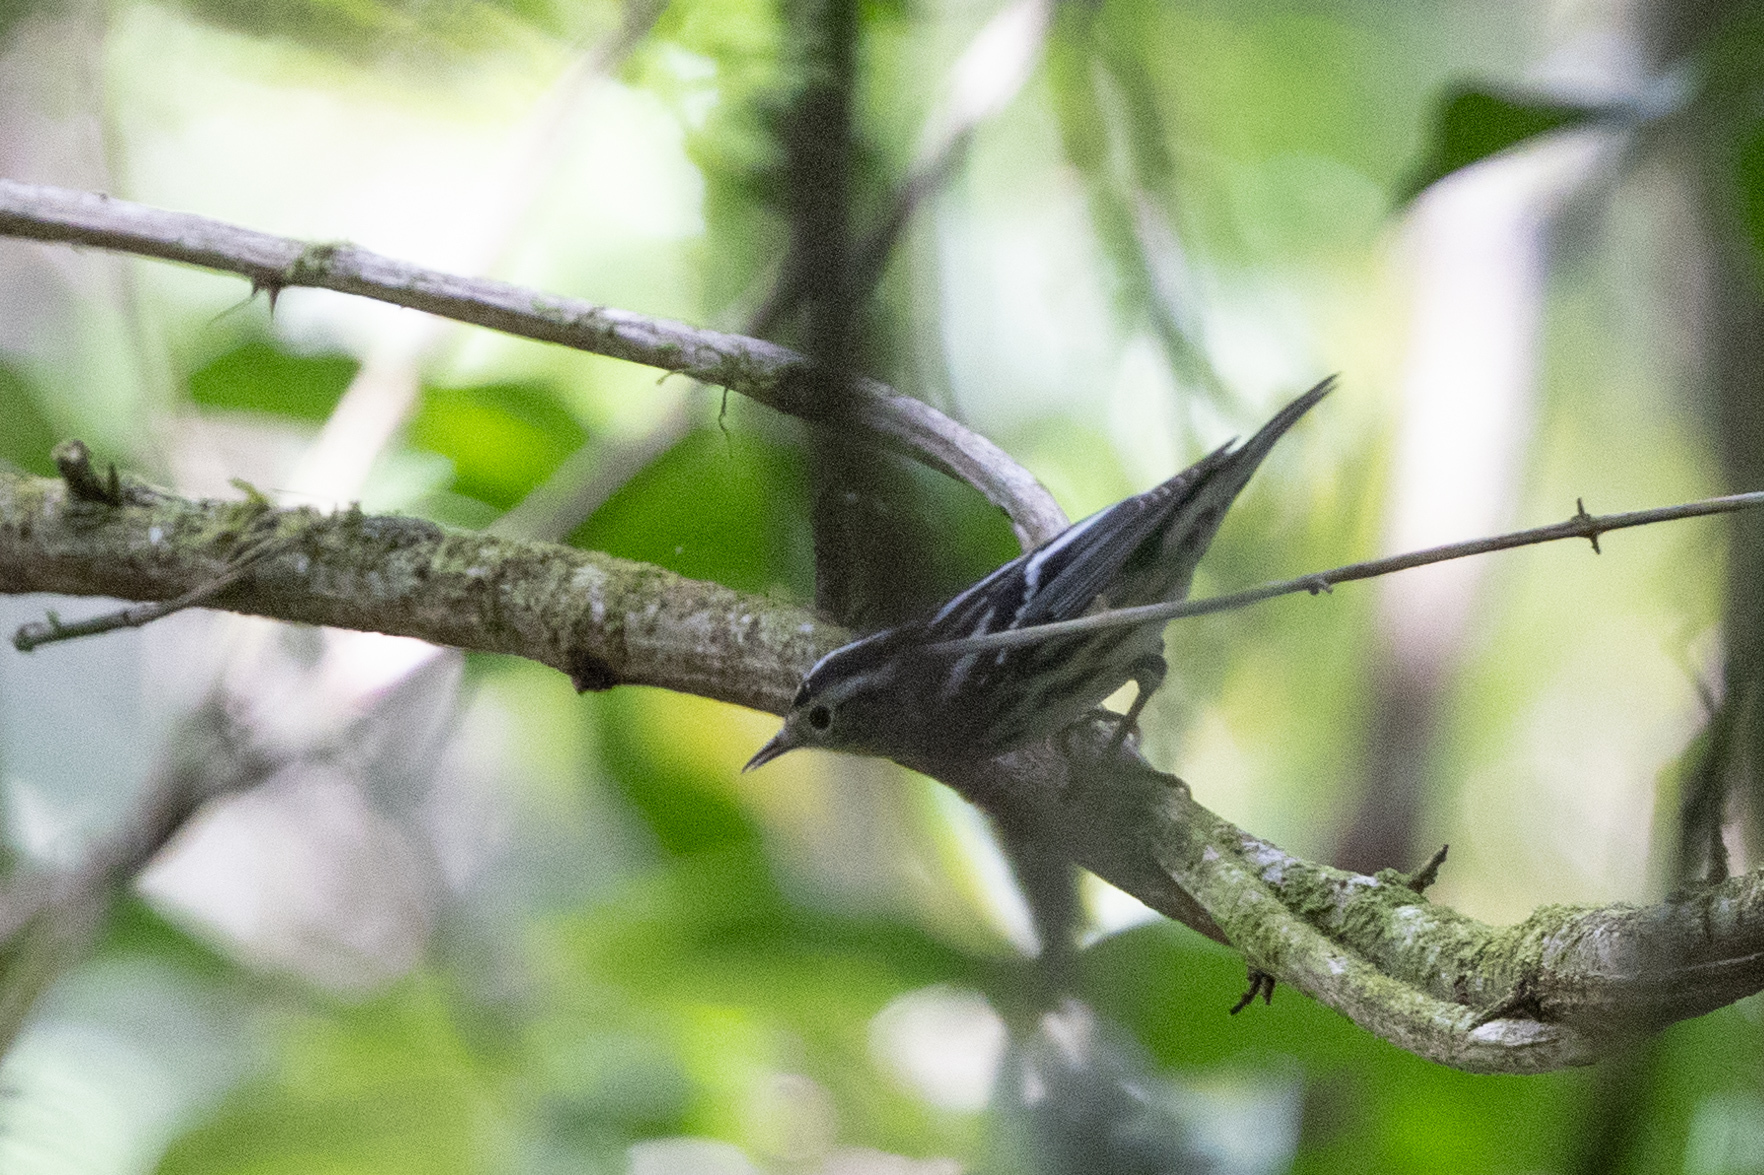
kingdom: Animalia
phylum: Chordata
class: Aves
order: Passeriformes
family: Parulidae
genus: Mniotilta
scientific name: Mniotilta varia
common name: Black-and-white warbler
